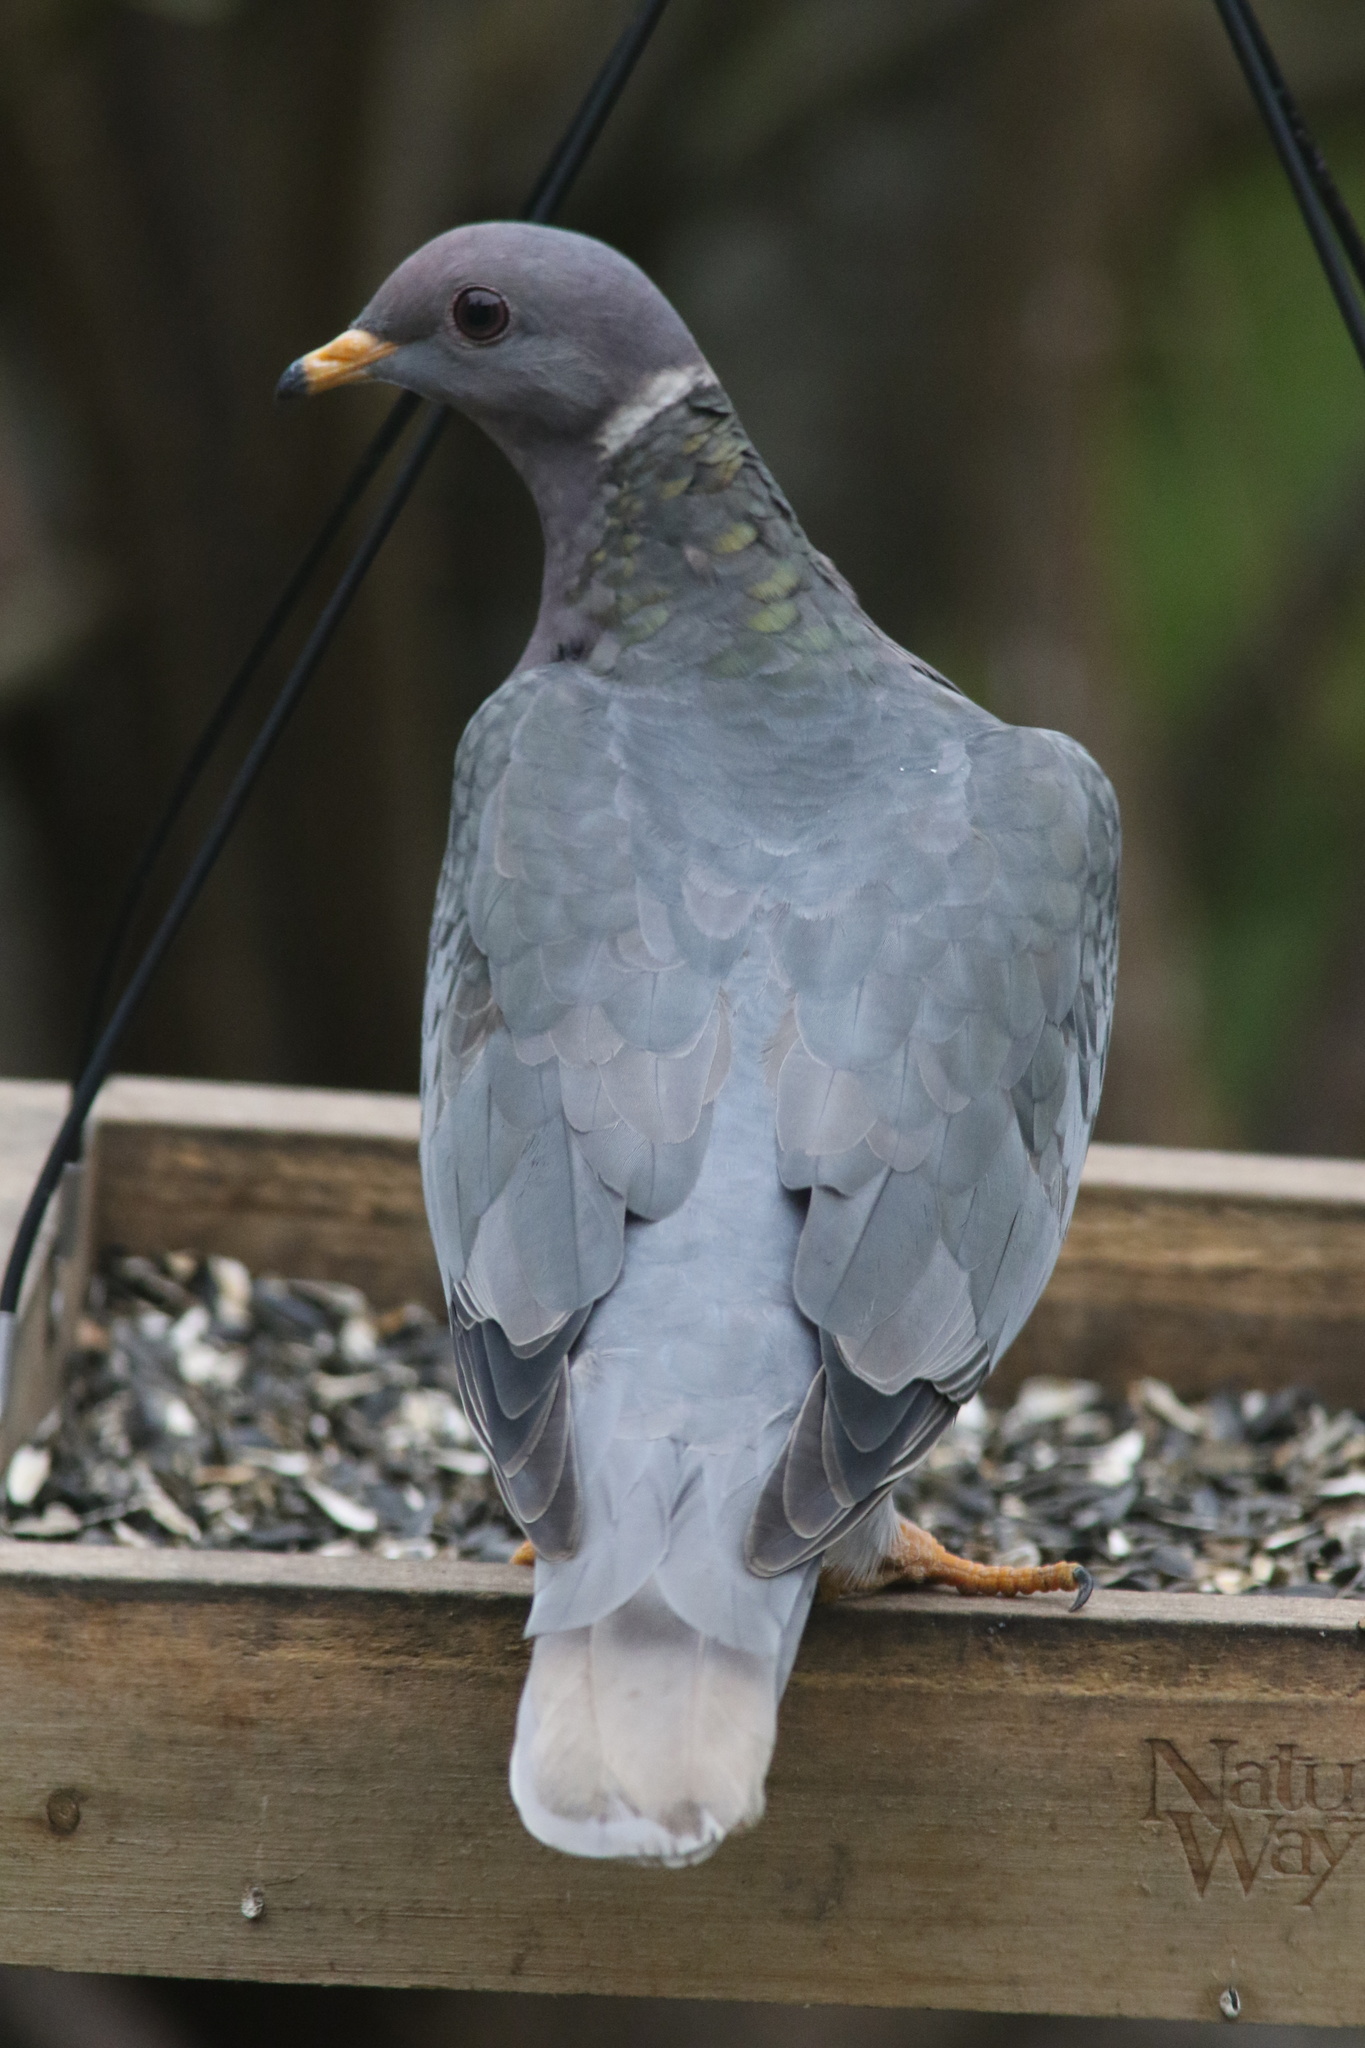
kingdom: Animalia
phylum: Chordata
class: Aves
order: Columbiformes
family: Columbidae
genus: Patagioenas
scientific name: Patagioenas fasciata
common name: Band-tailed pigeon
